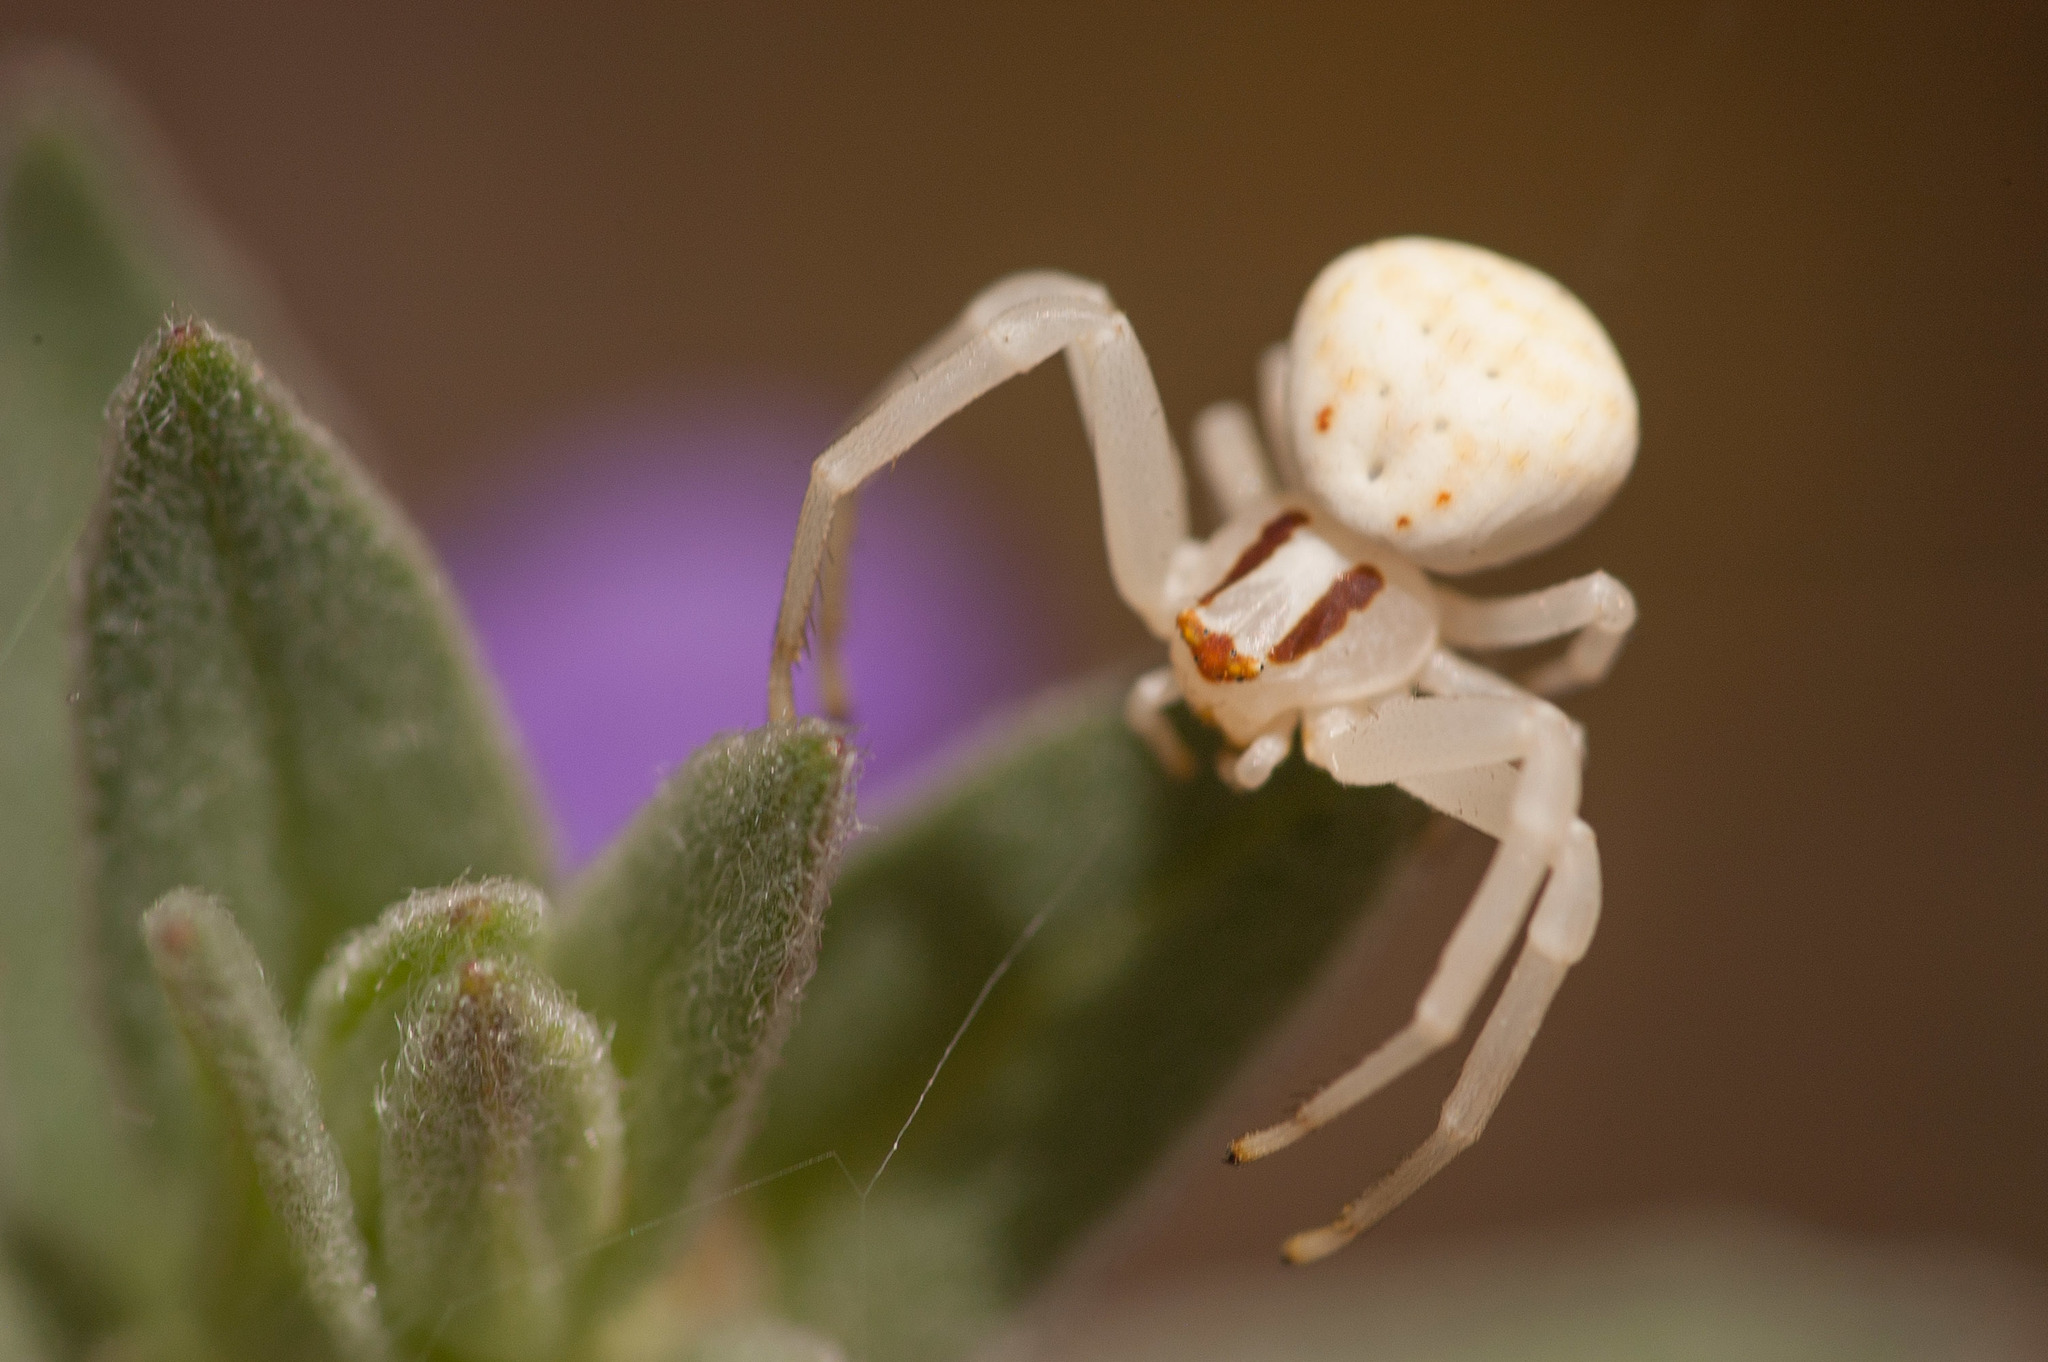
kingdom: Animalia
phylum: Arthropoda
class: Arachnida
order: Araneae
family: Thomisidae
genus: Zygometis
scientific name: Zygometis xanthogaster
